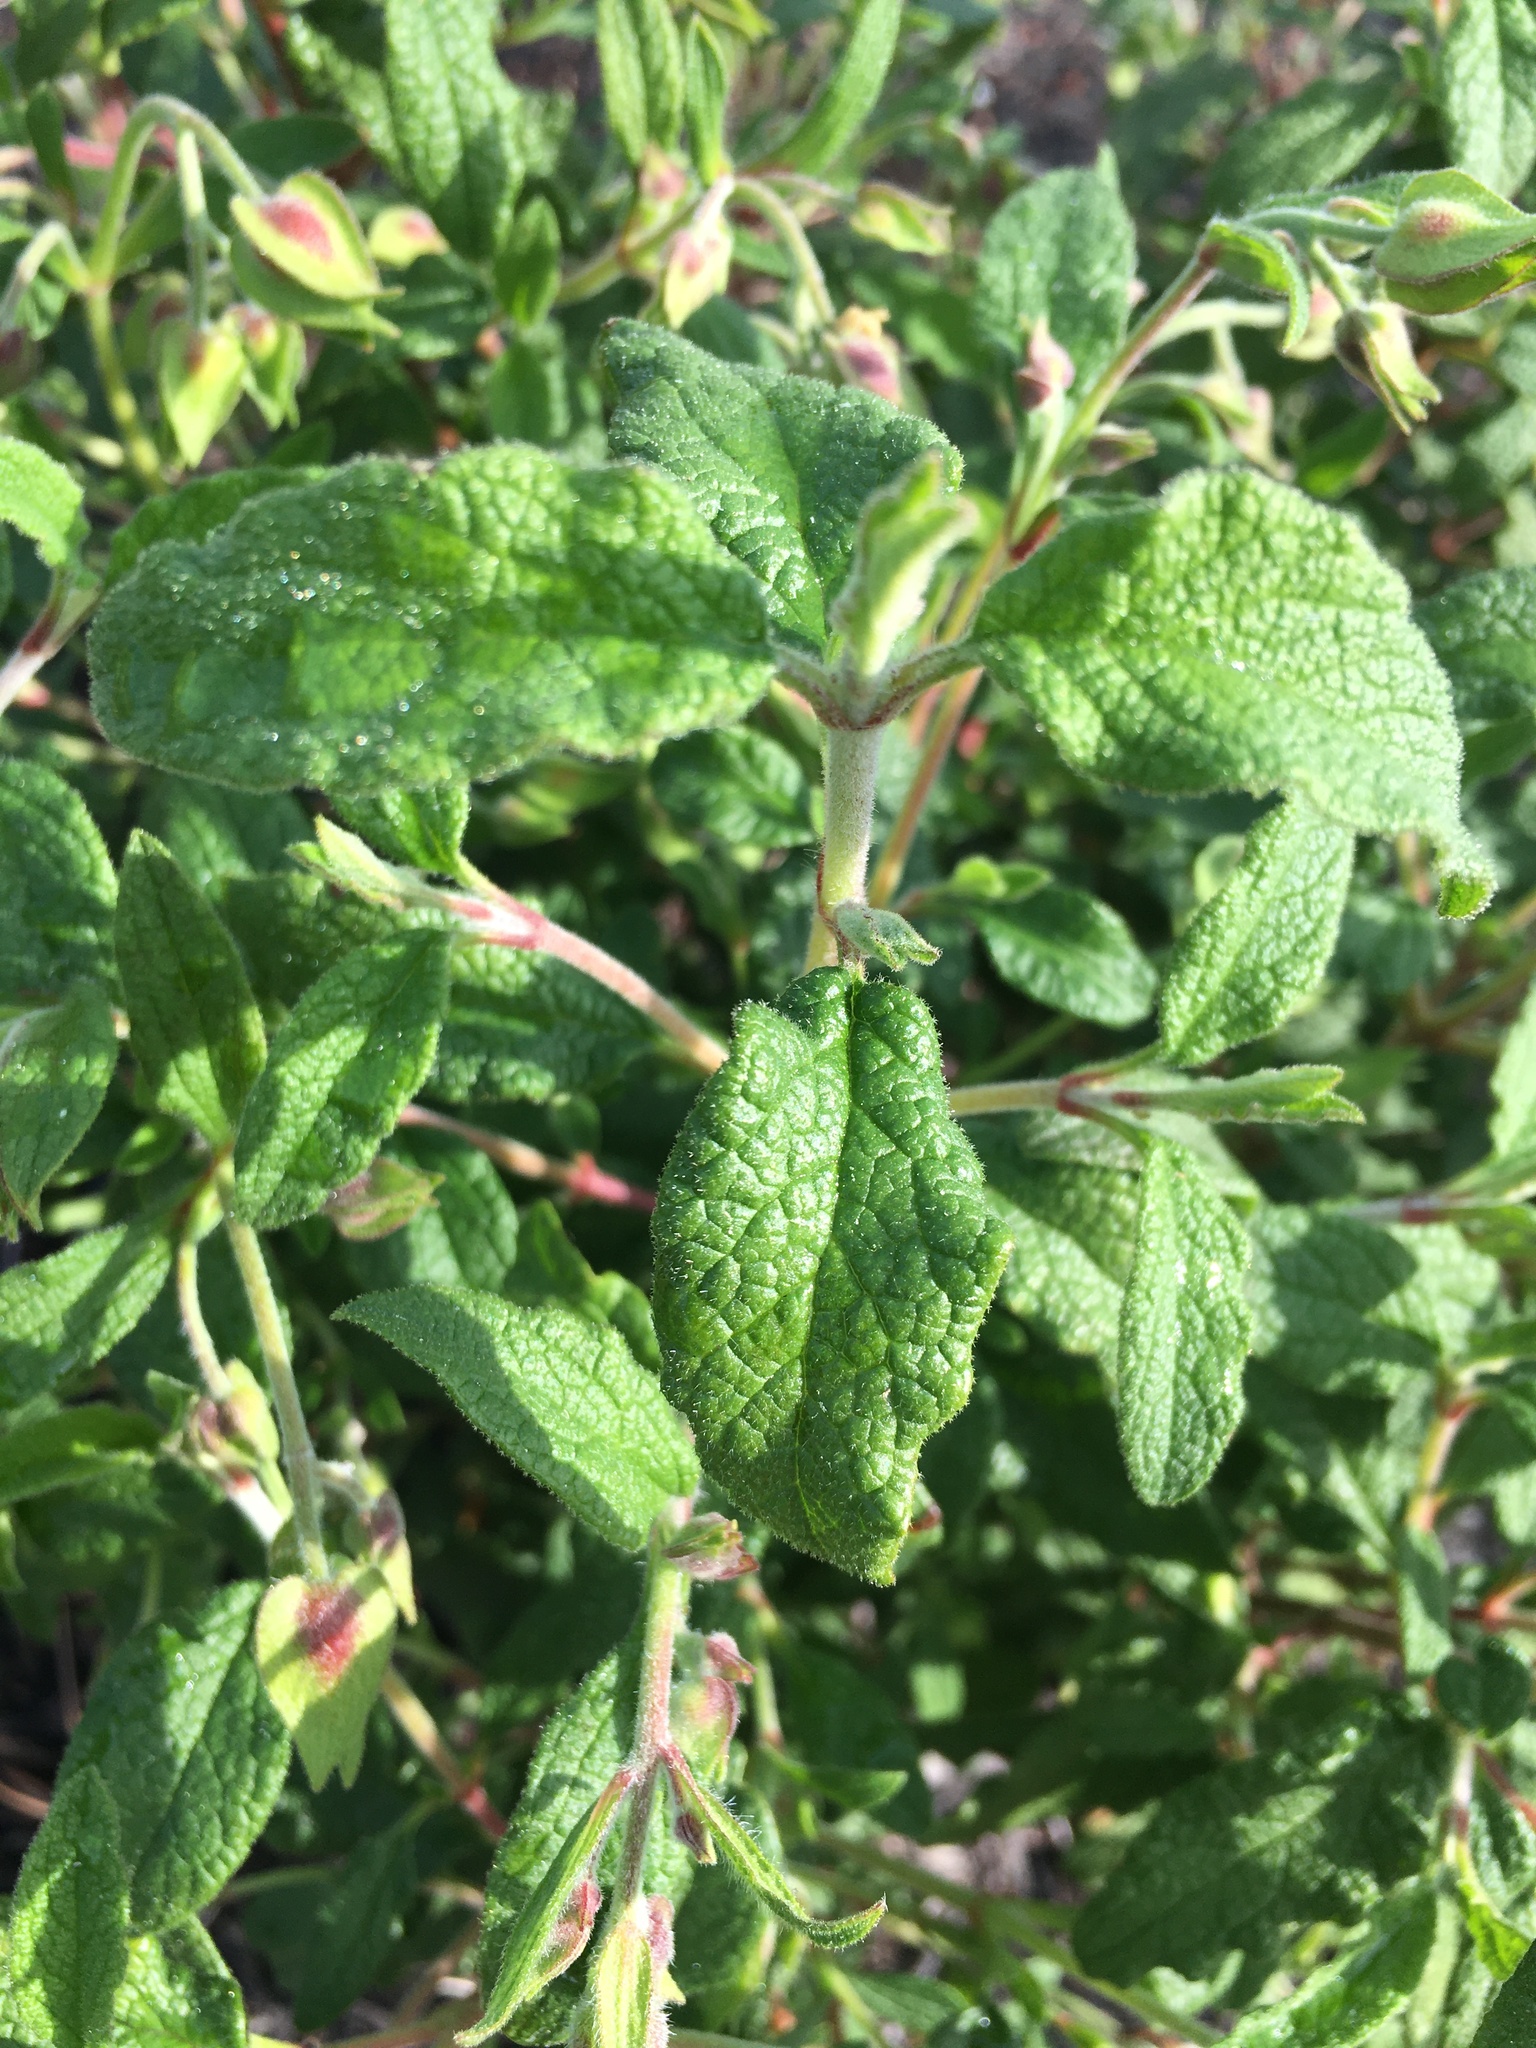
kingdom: Plantae
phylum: Tracheophyta
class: Magnoliopsida
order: Malvales
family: Cistaceae
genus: Cistus
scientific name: Cistus salviifolius
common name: Salvia cistus
